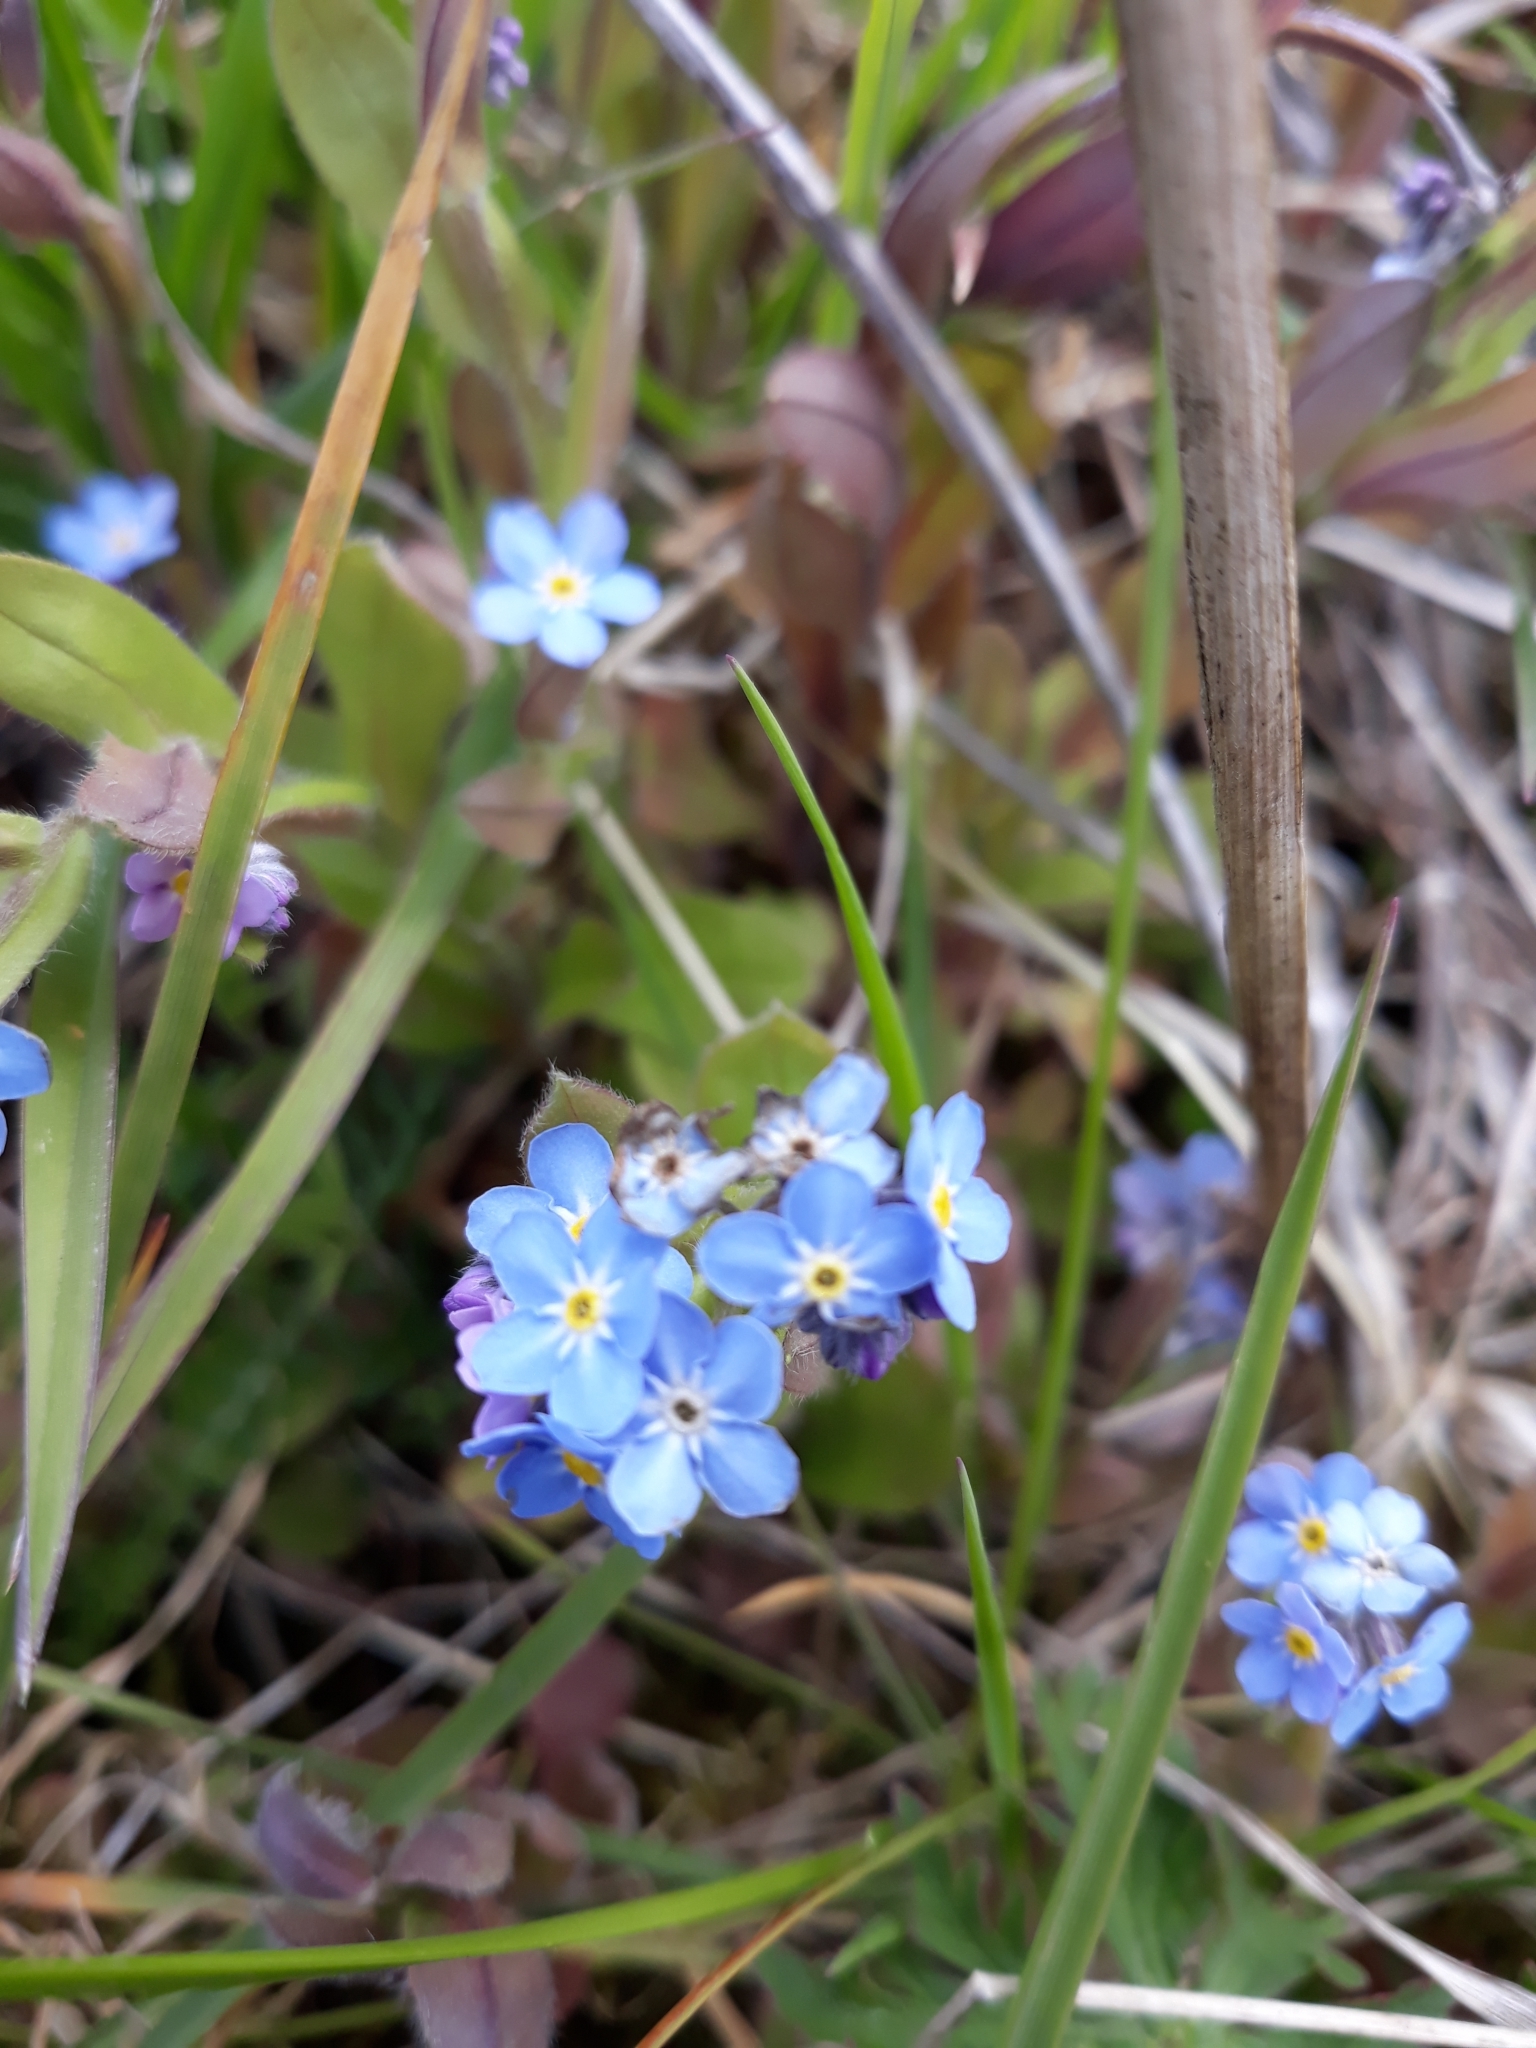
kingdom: Plantae
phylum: Tracheophyta
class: Magnoliopsida
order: Boraginales
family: Boraginaceae
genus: Myosotis
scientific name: Myosotis arvensis
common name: Field forget-me-not
